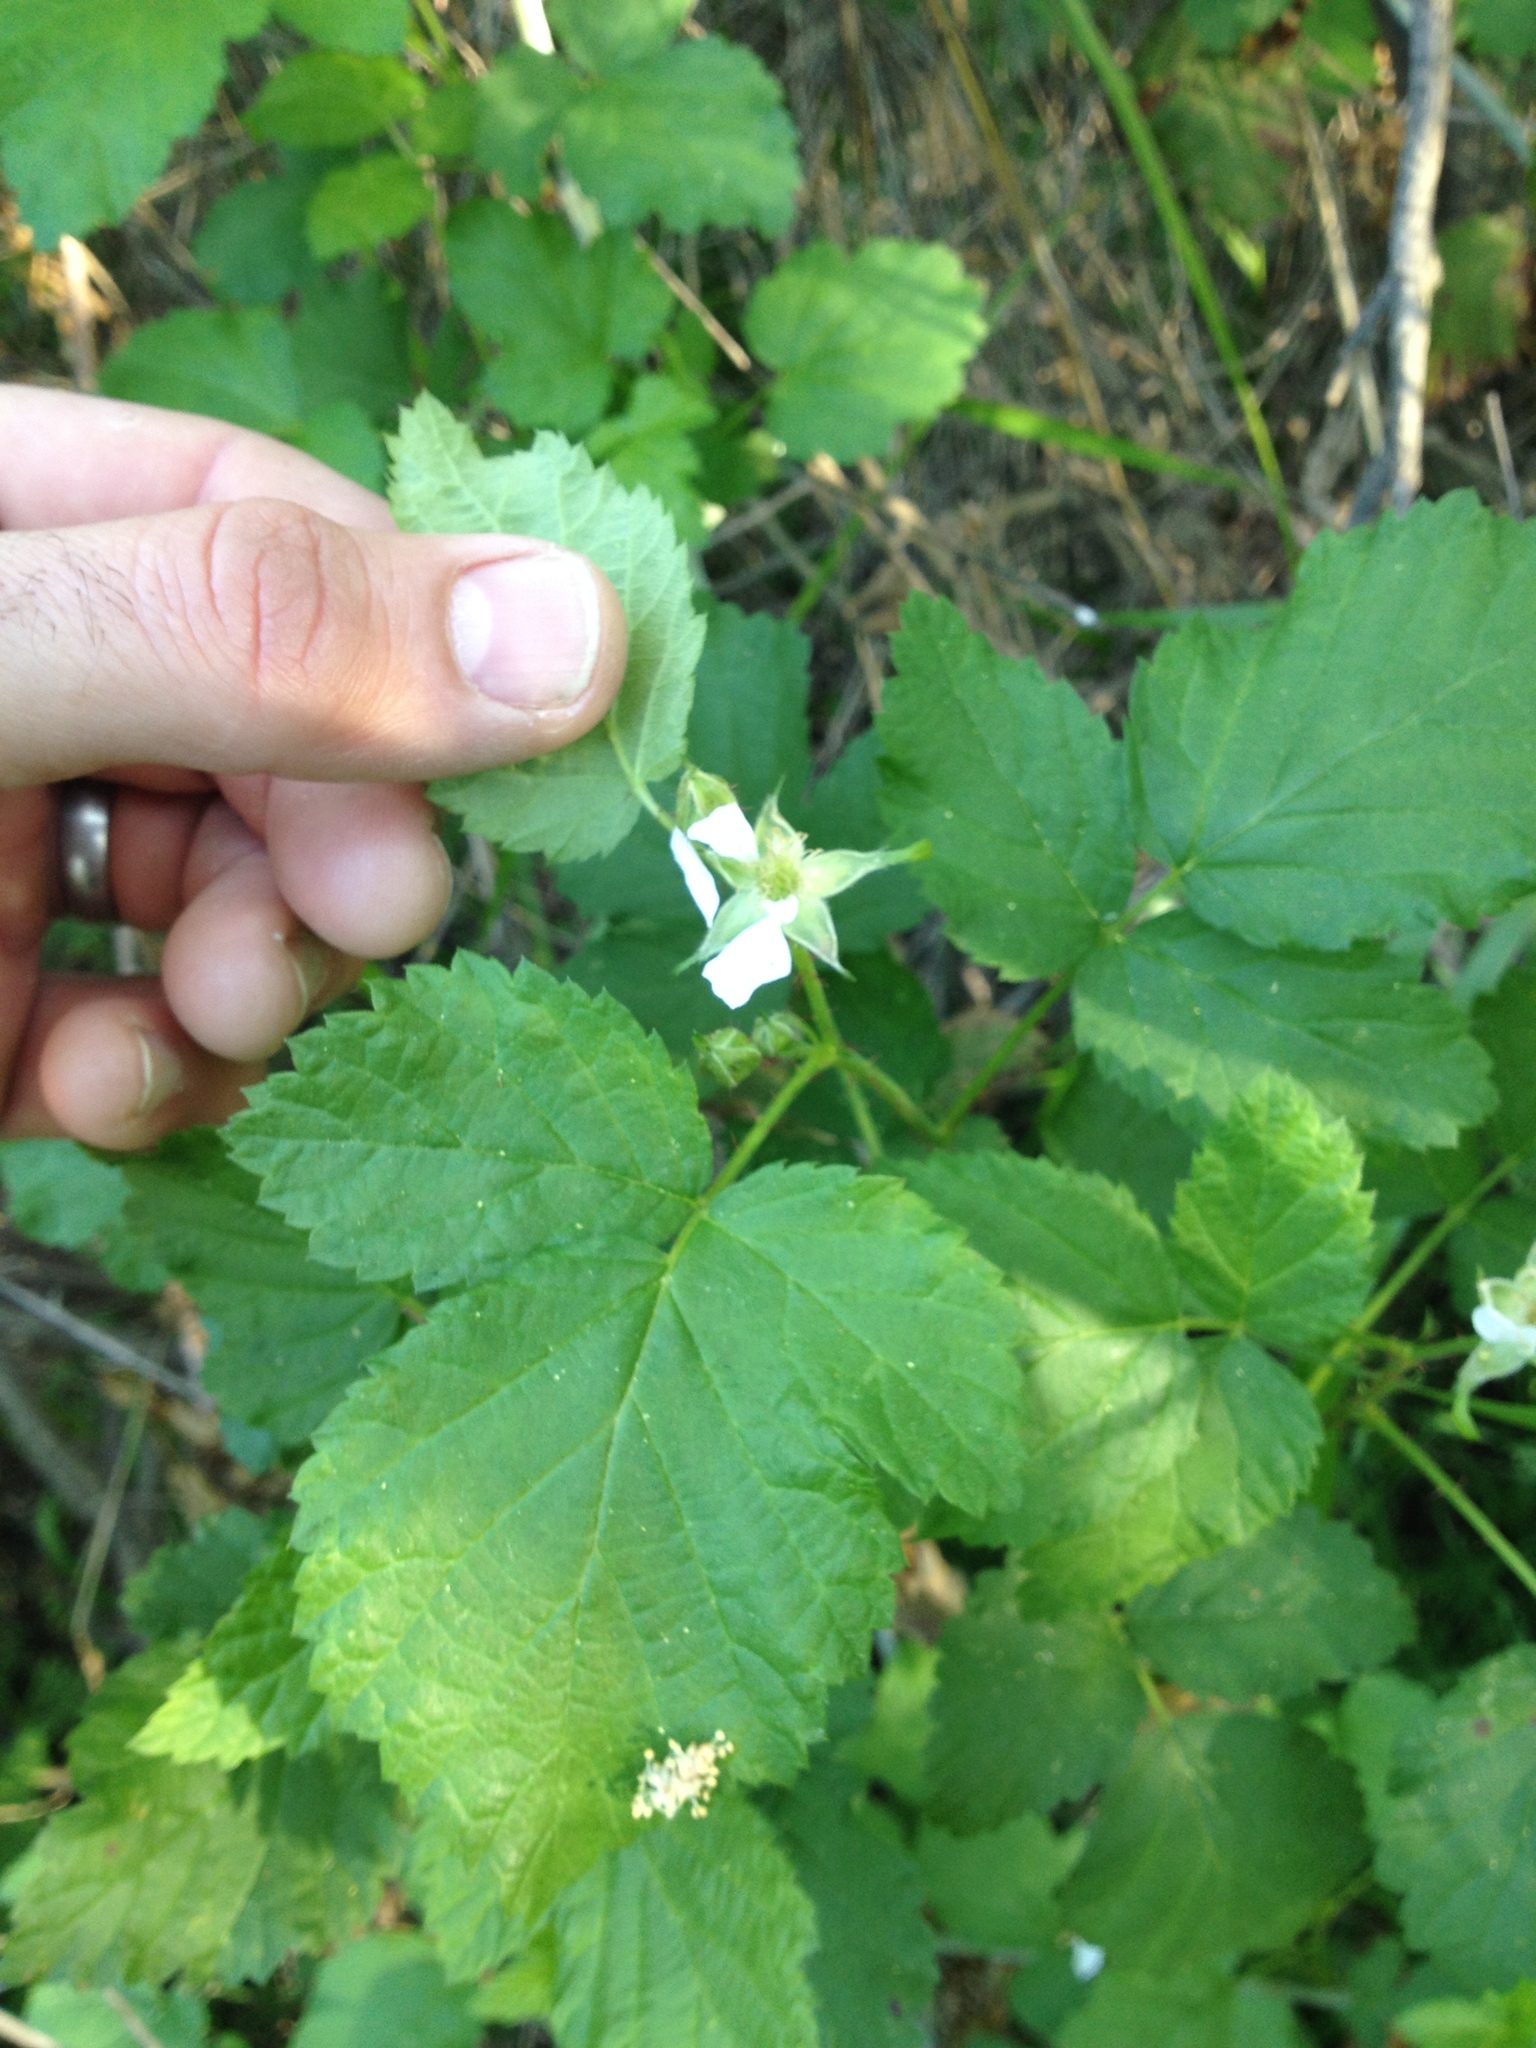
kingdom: Plantae
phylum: Tracheophyta
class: Magnoliopsida
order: Rosales
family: Rosaceae
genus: Rubus
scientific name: Rubus ursinus
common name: Pacific blackberry
